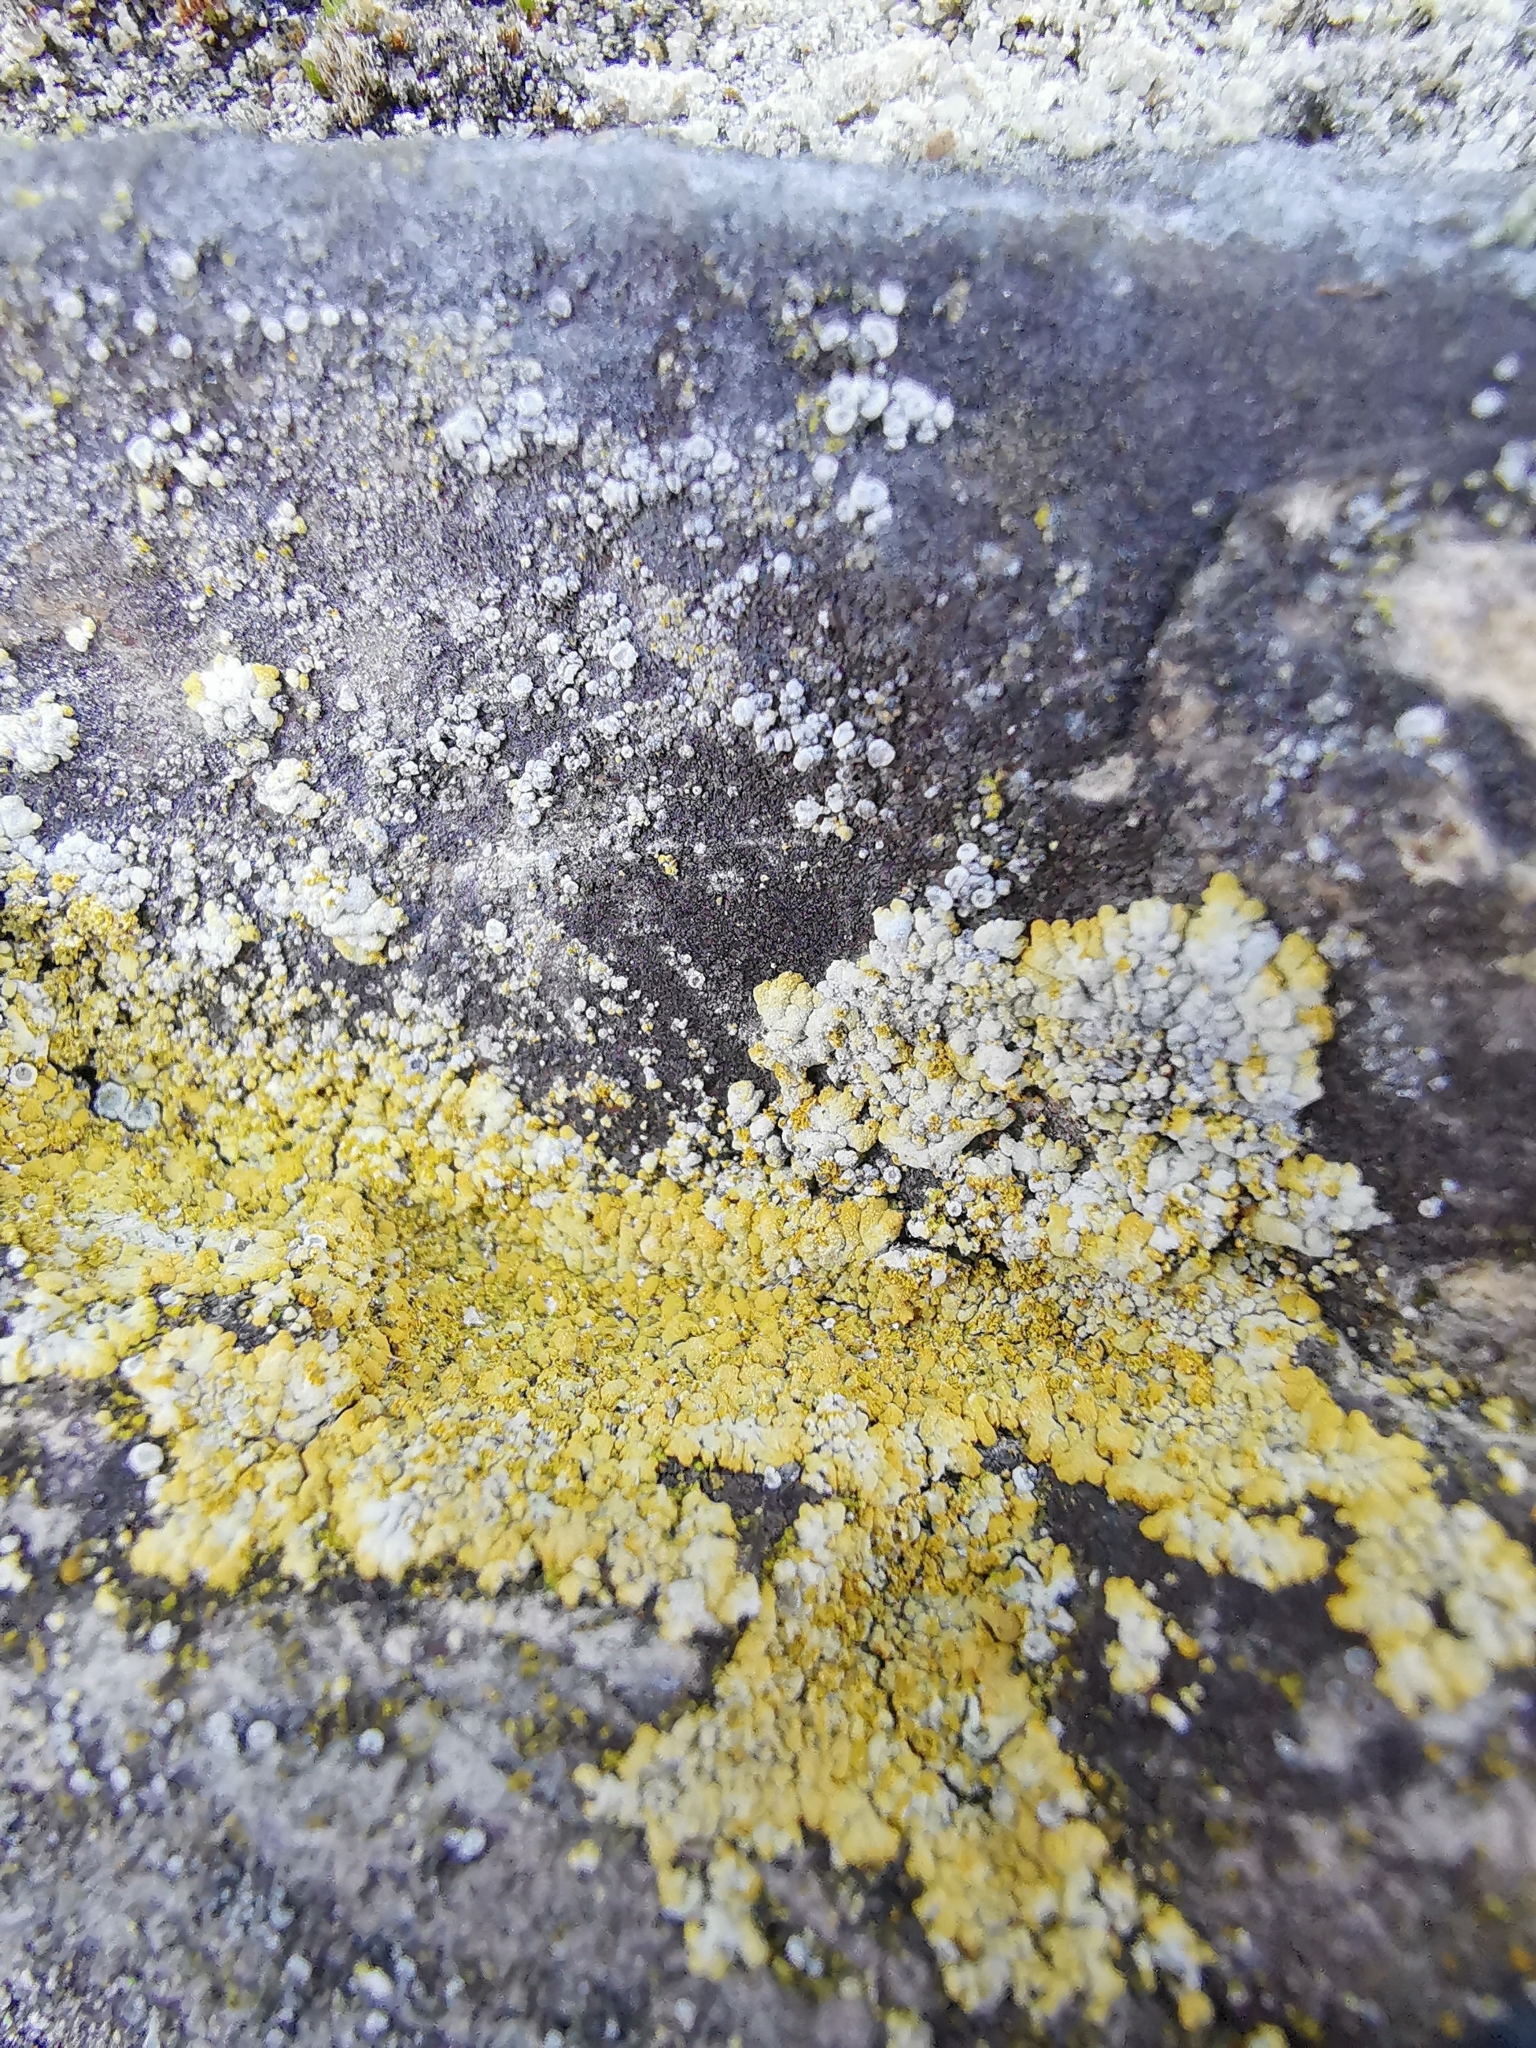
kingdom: Fungi
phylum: Ascomycota
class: Lecanoromycetes
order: Teloschistales
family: Teloschistaceae
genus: Calogaya
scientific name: Calogaya decipiens
